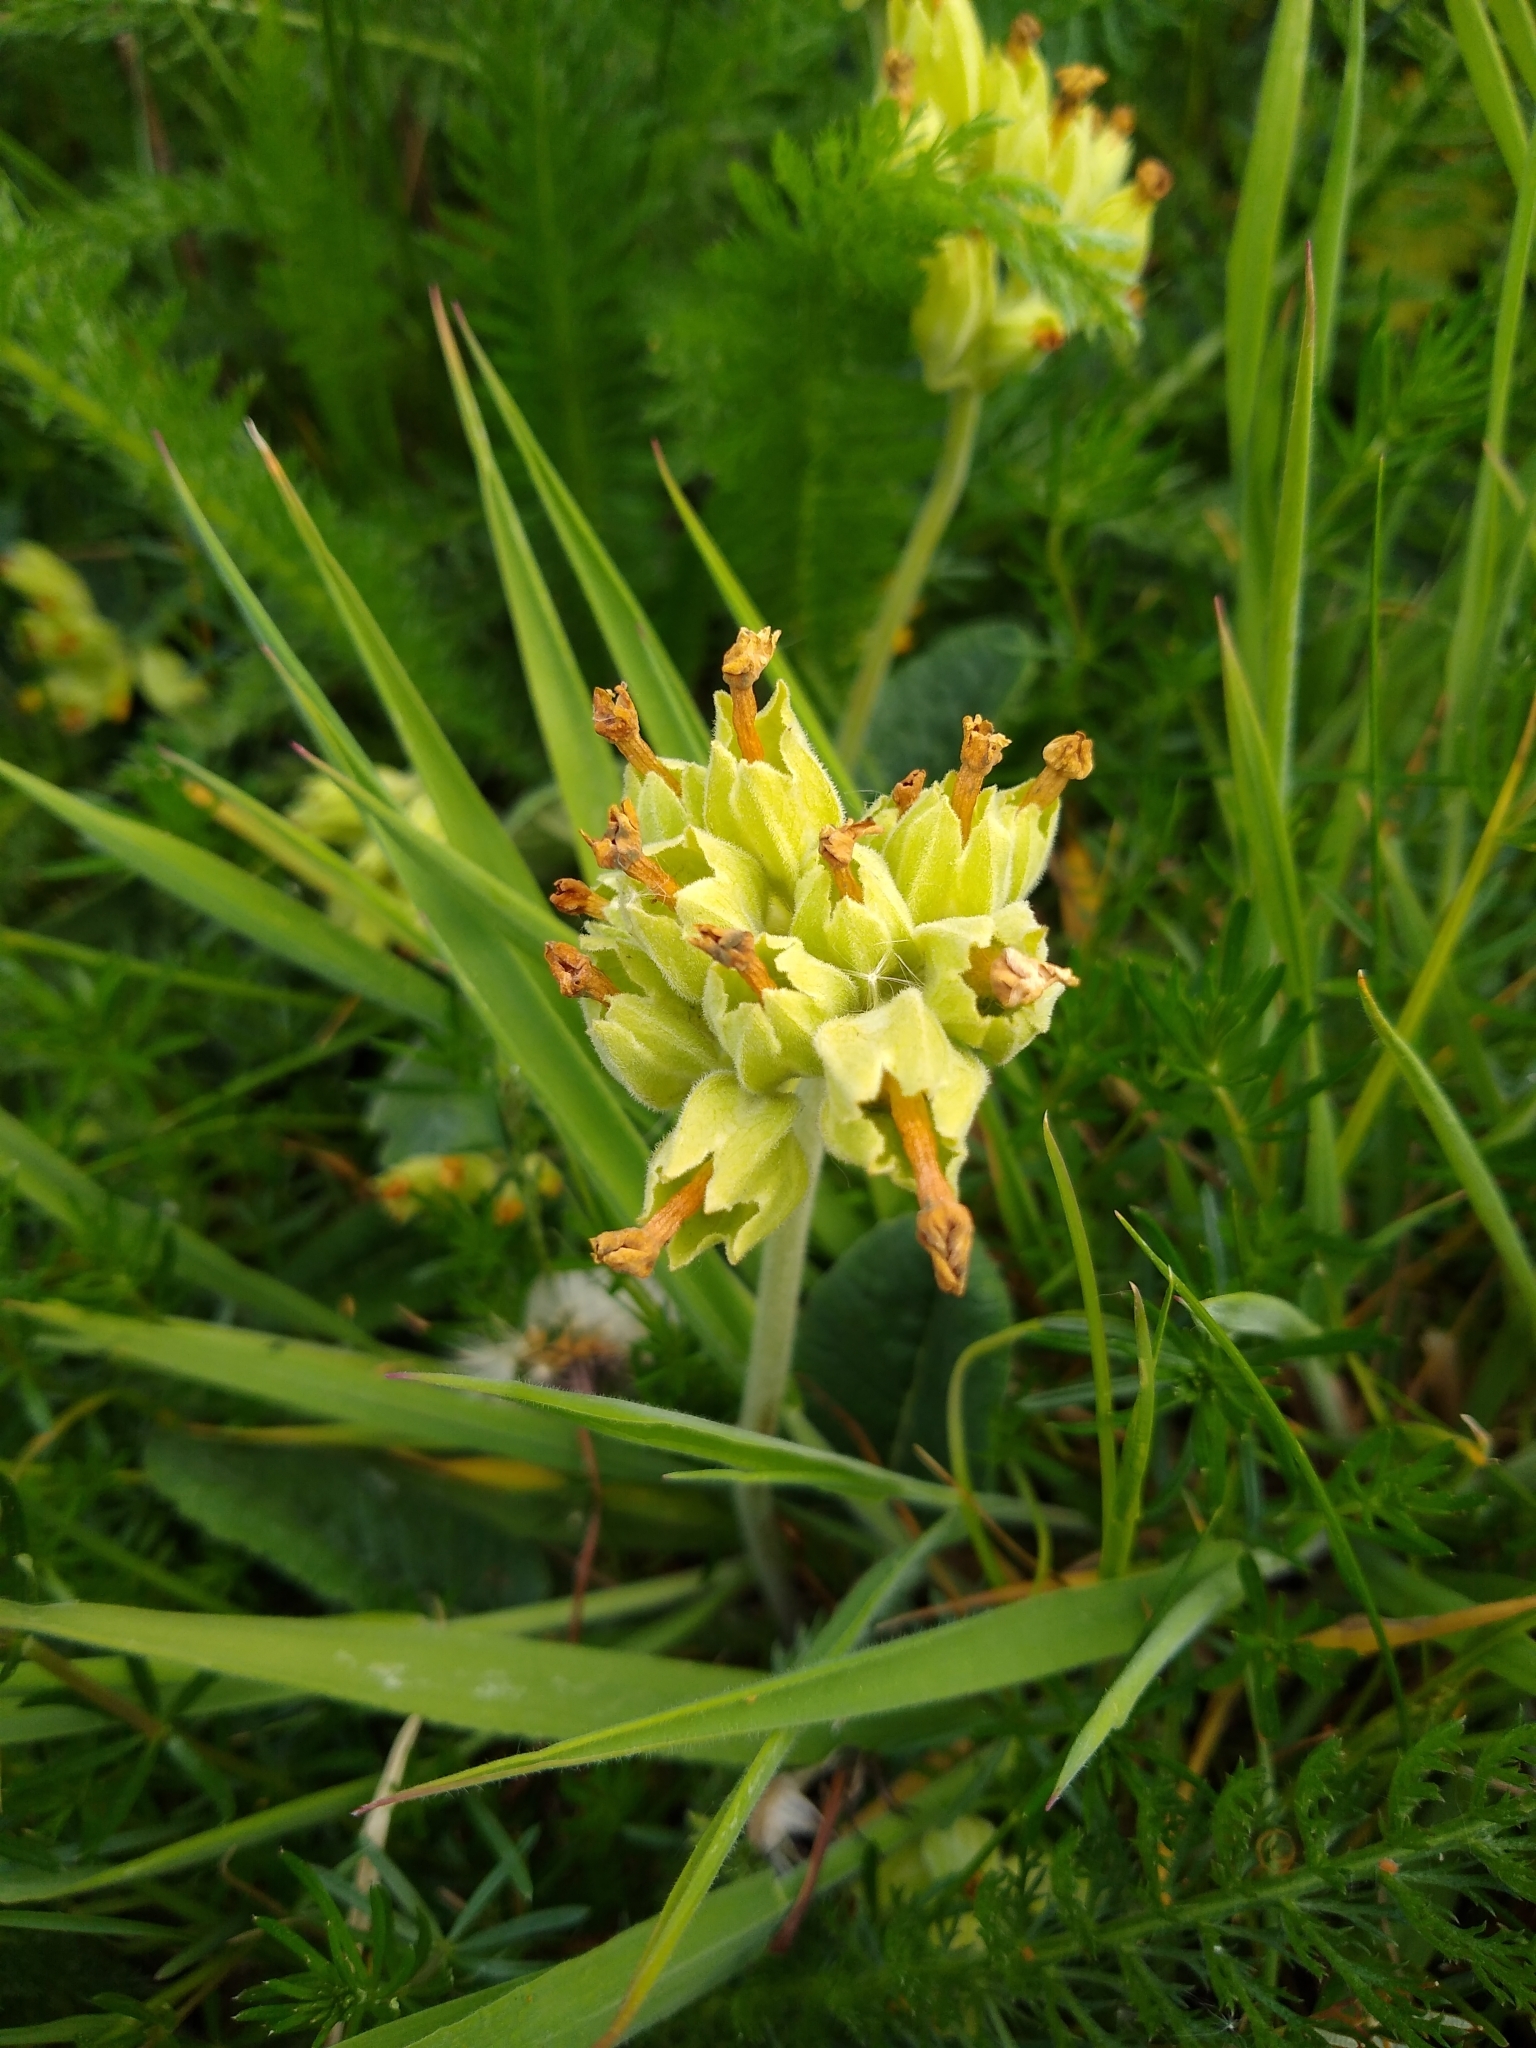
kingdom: Plantae
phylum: Tracheophyta
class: Magnoliopsida
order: Ericales
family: Primulaceae
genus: Primula
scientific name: Primula veris
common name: Cowslip
